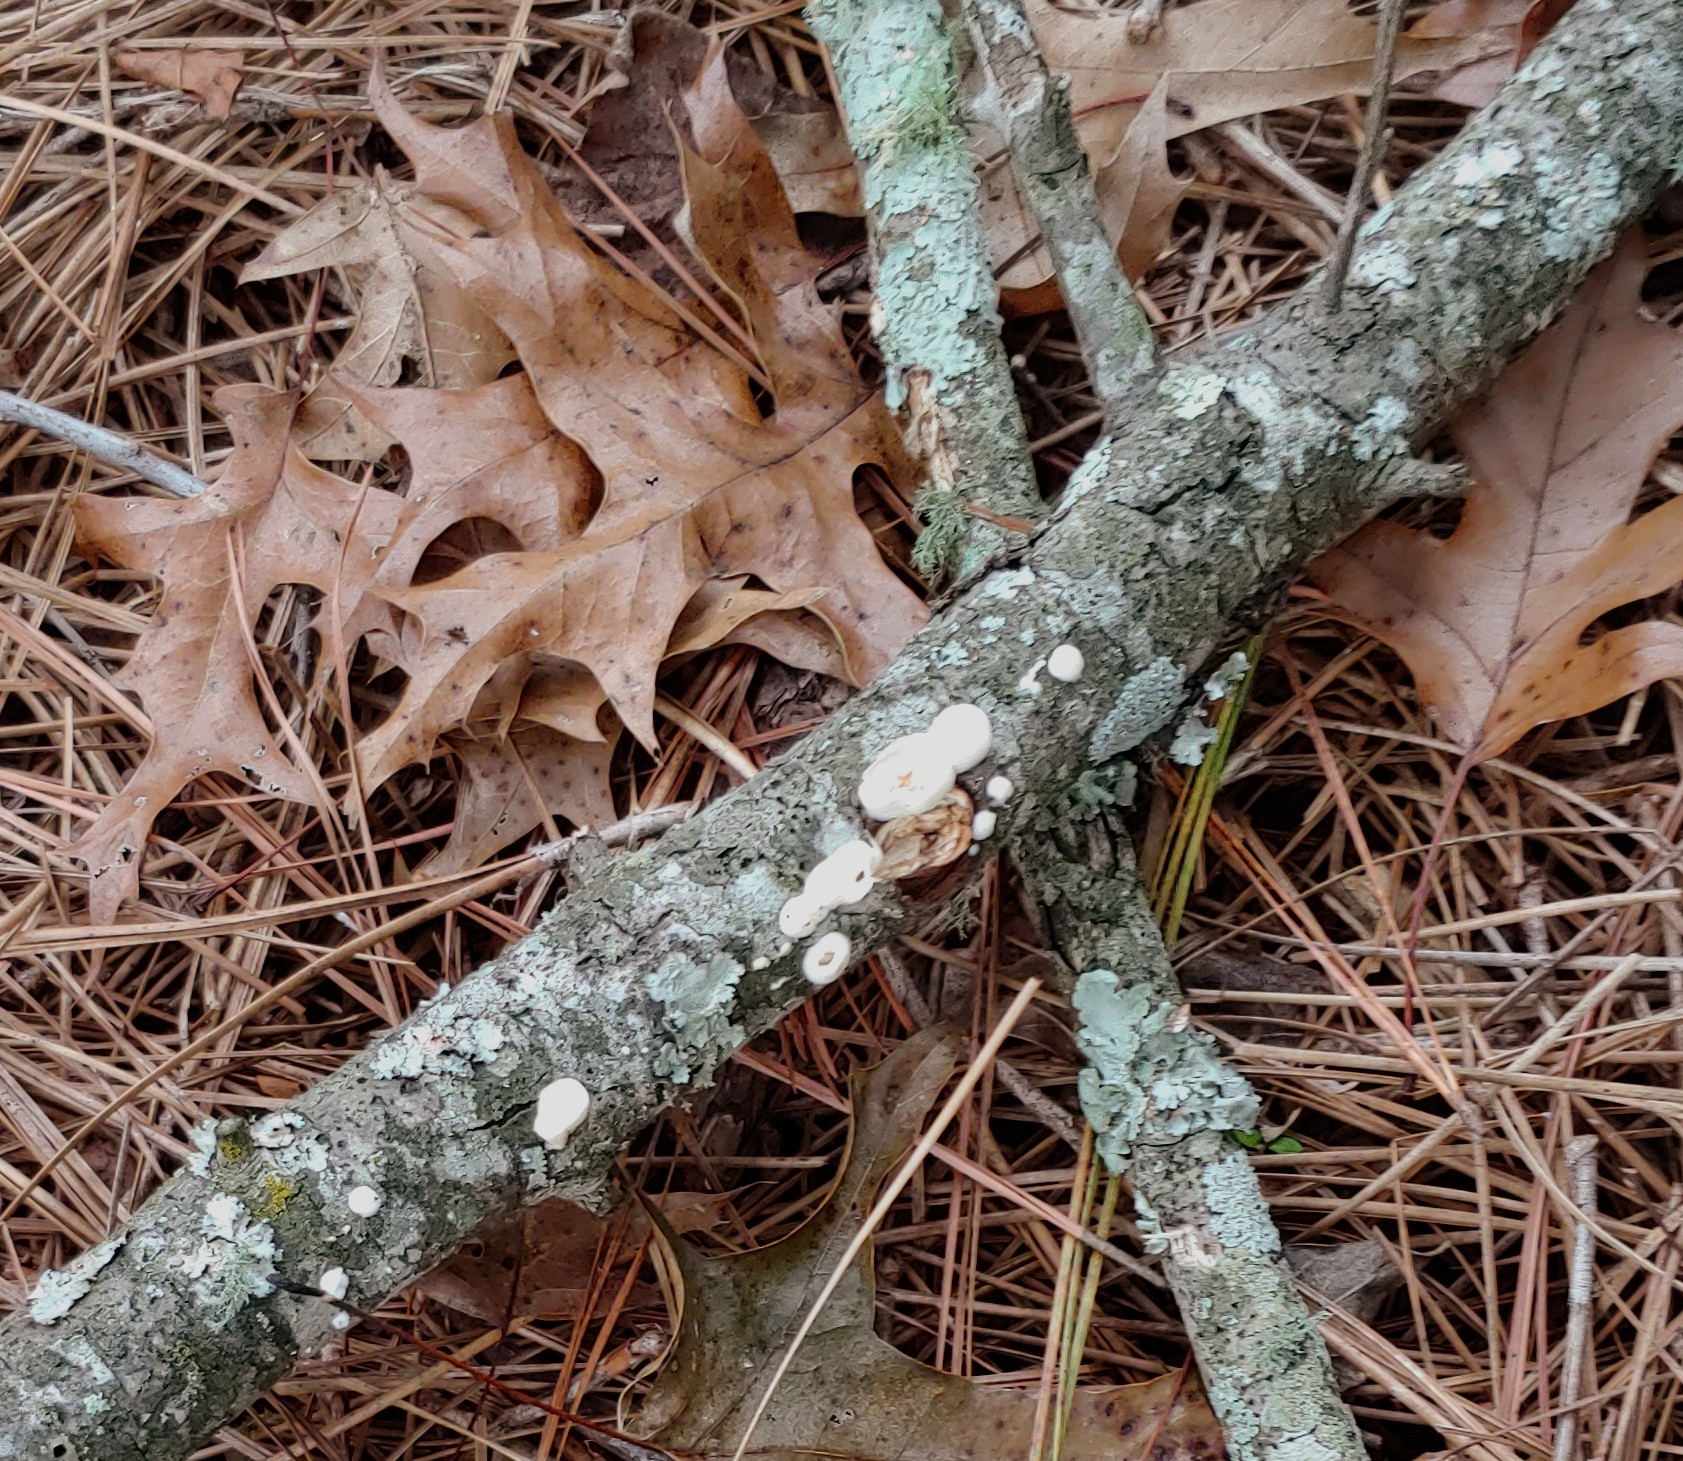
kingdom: Fungi
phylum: Basidiomycota
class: Agaricomycetes
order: Polyporales
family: Polyporaceae
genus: Poronidulus
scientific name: Poronidulus conchifer
